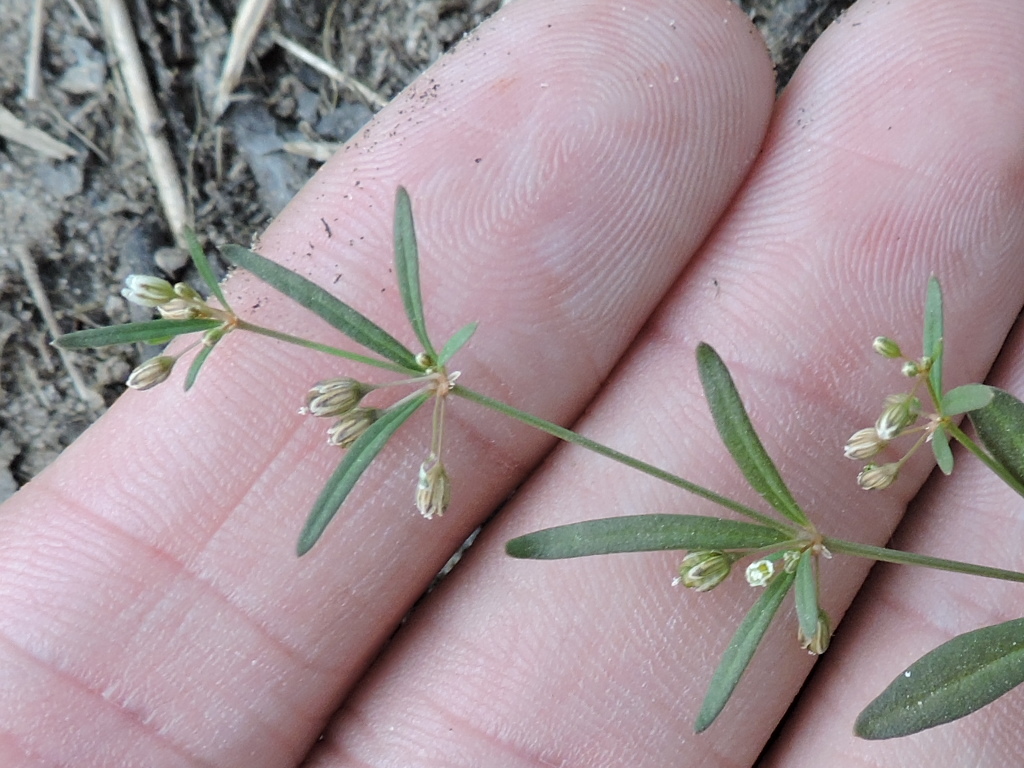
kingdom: Plantae
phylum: Tracheophyta
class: Magnoliopsida
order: Caryophyllales
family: Molluginaceae
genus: Mollugo
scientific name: Mollugo verticillata
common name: Green carpetweed
